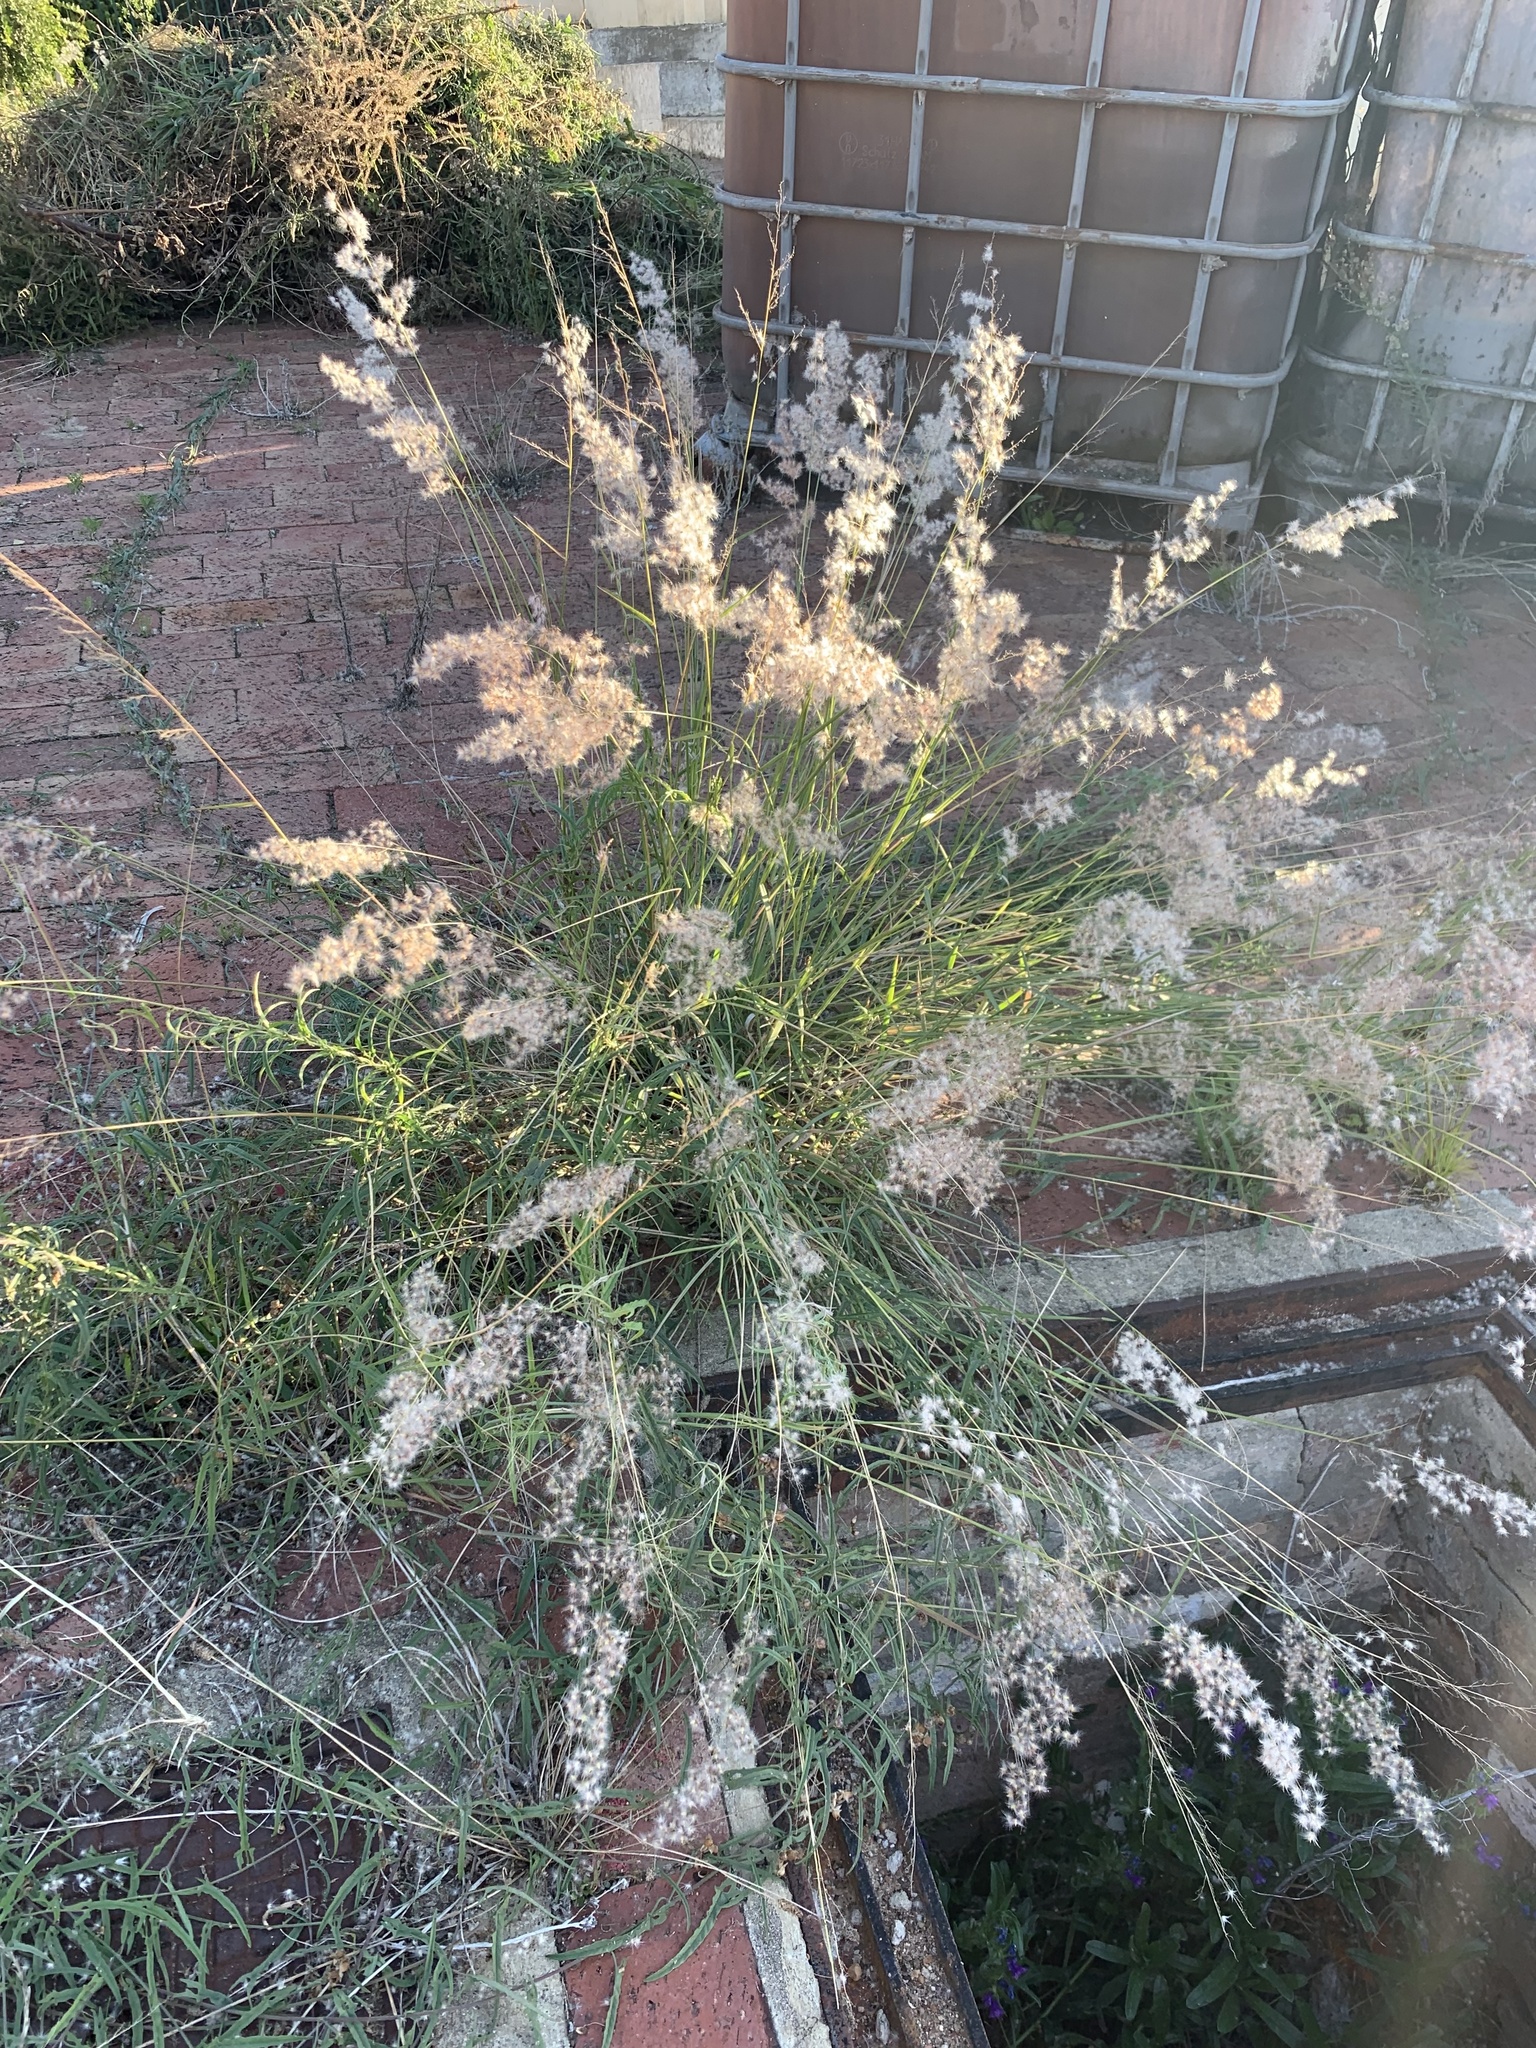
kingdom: Plantae
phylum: Tracheophyta
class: Liliopsida
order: Poales
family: Poaceae
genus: Melinis
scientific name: Melinis repens
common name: Rose natal grass
